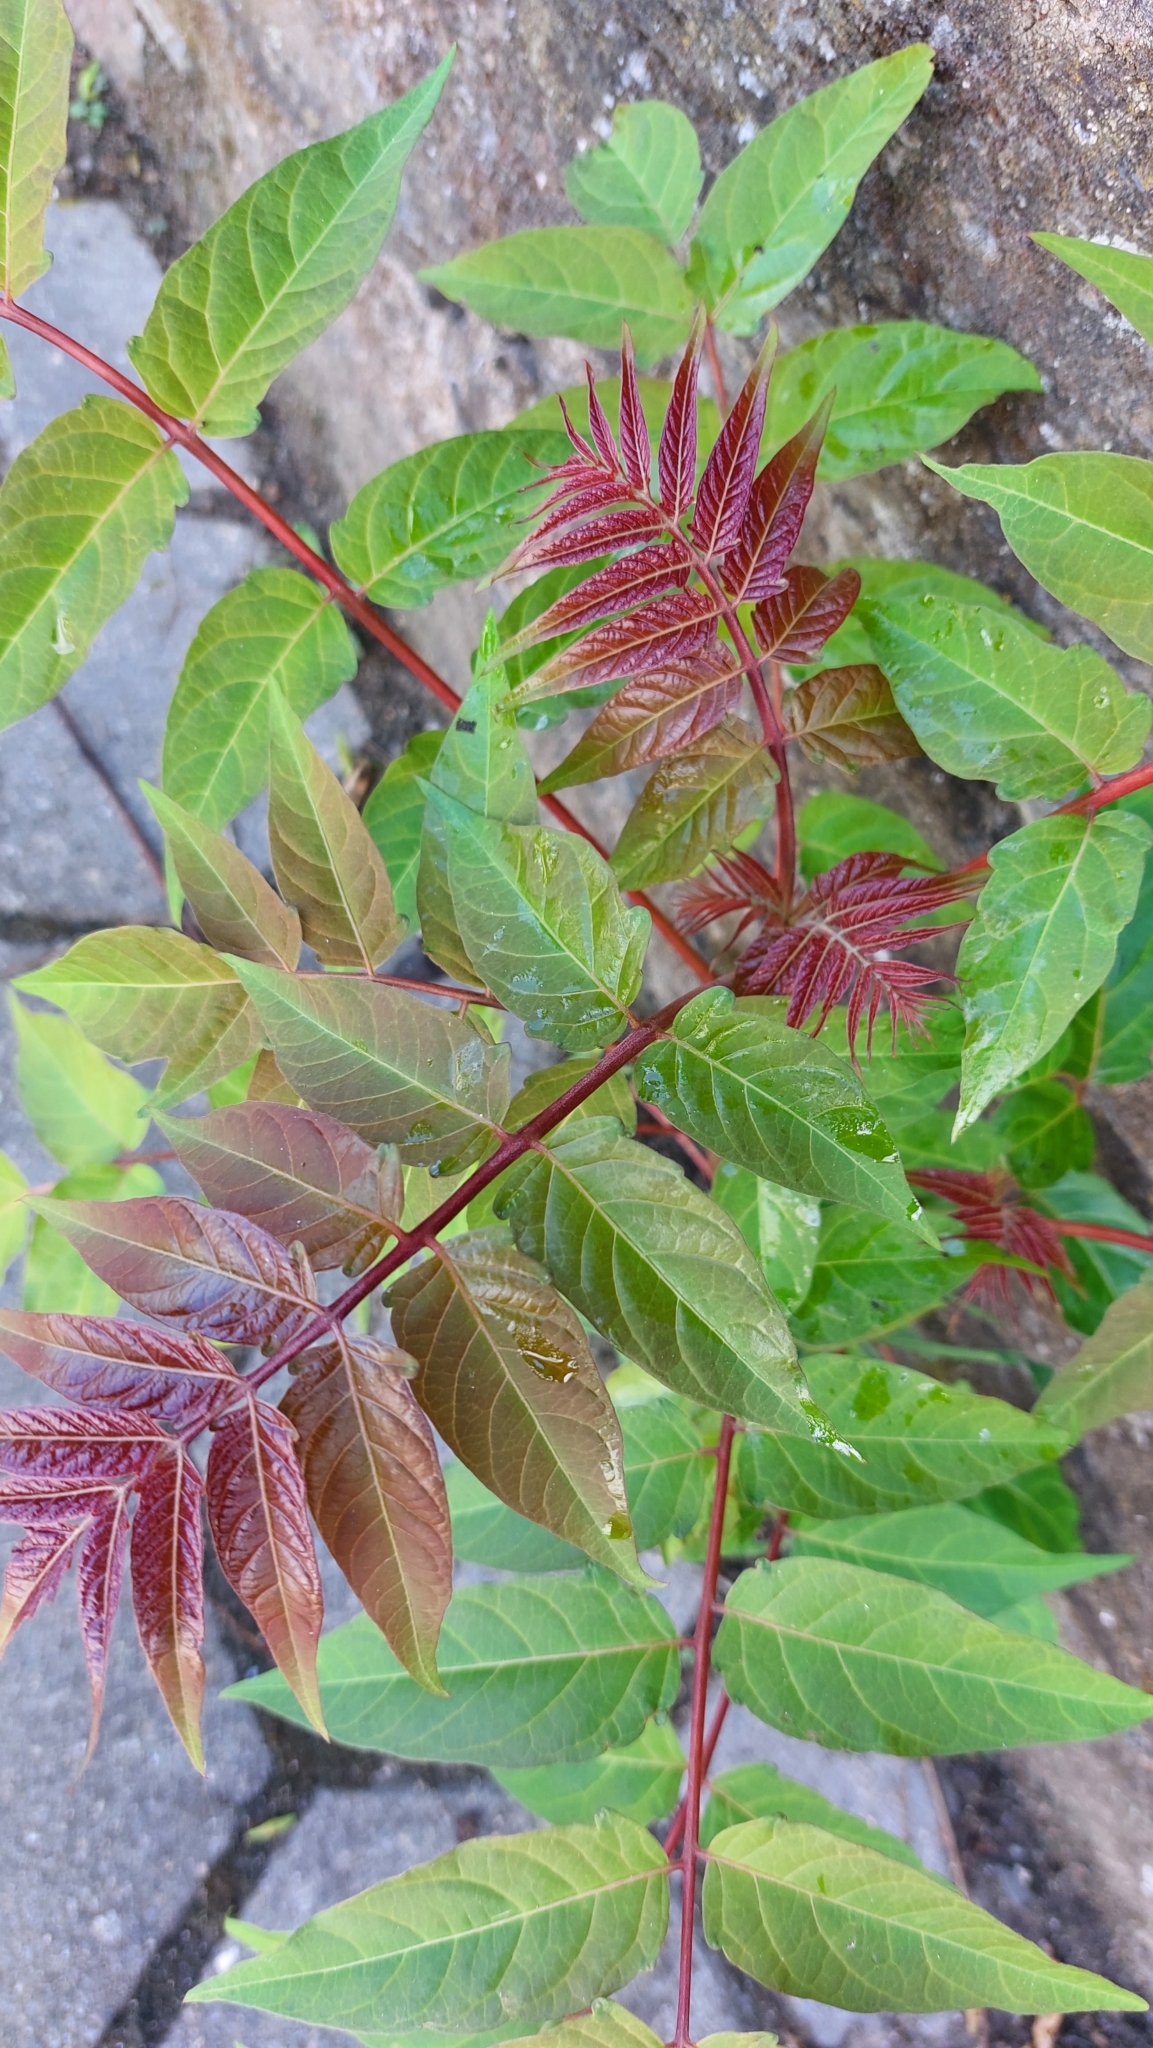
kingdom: Plantae
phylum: Tracheophyta
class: Magnoliopsida
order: Sapindales
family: Simaroubaceae
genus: Ailanthus
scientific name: Ailanthus altissima
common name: Tree-of-heaven
